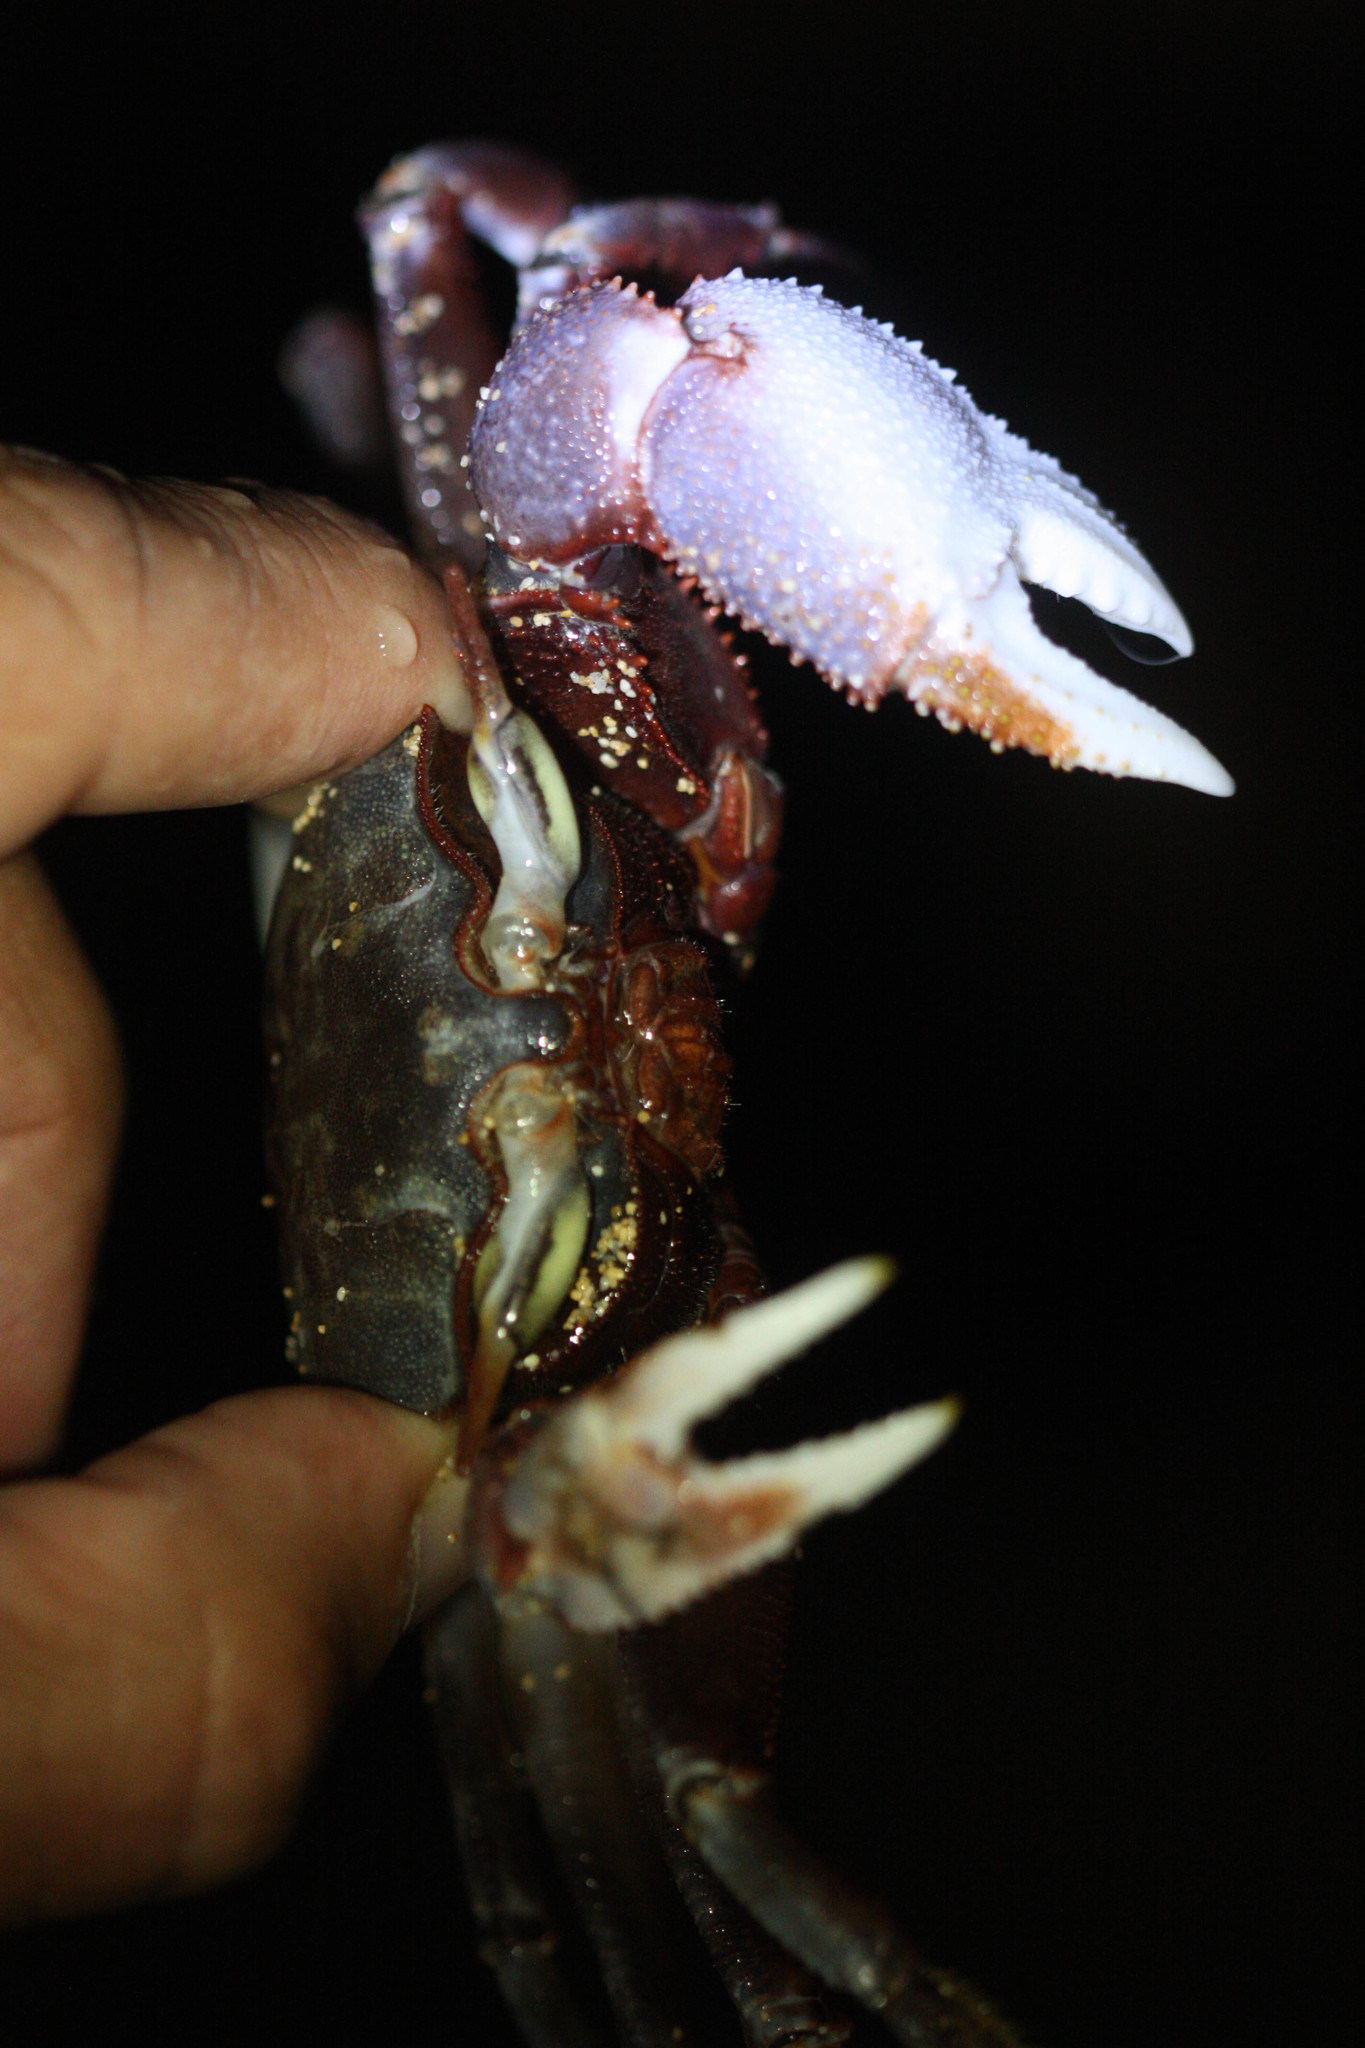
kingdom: Animalia
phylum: Arthropoda
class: Malacostraca
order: Decapoda
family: Ocypodidae
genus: Ocypode
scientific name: Ocypode ceratophthalmus
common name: Indo-pacific ghost crab
